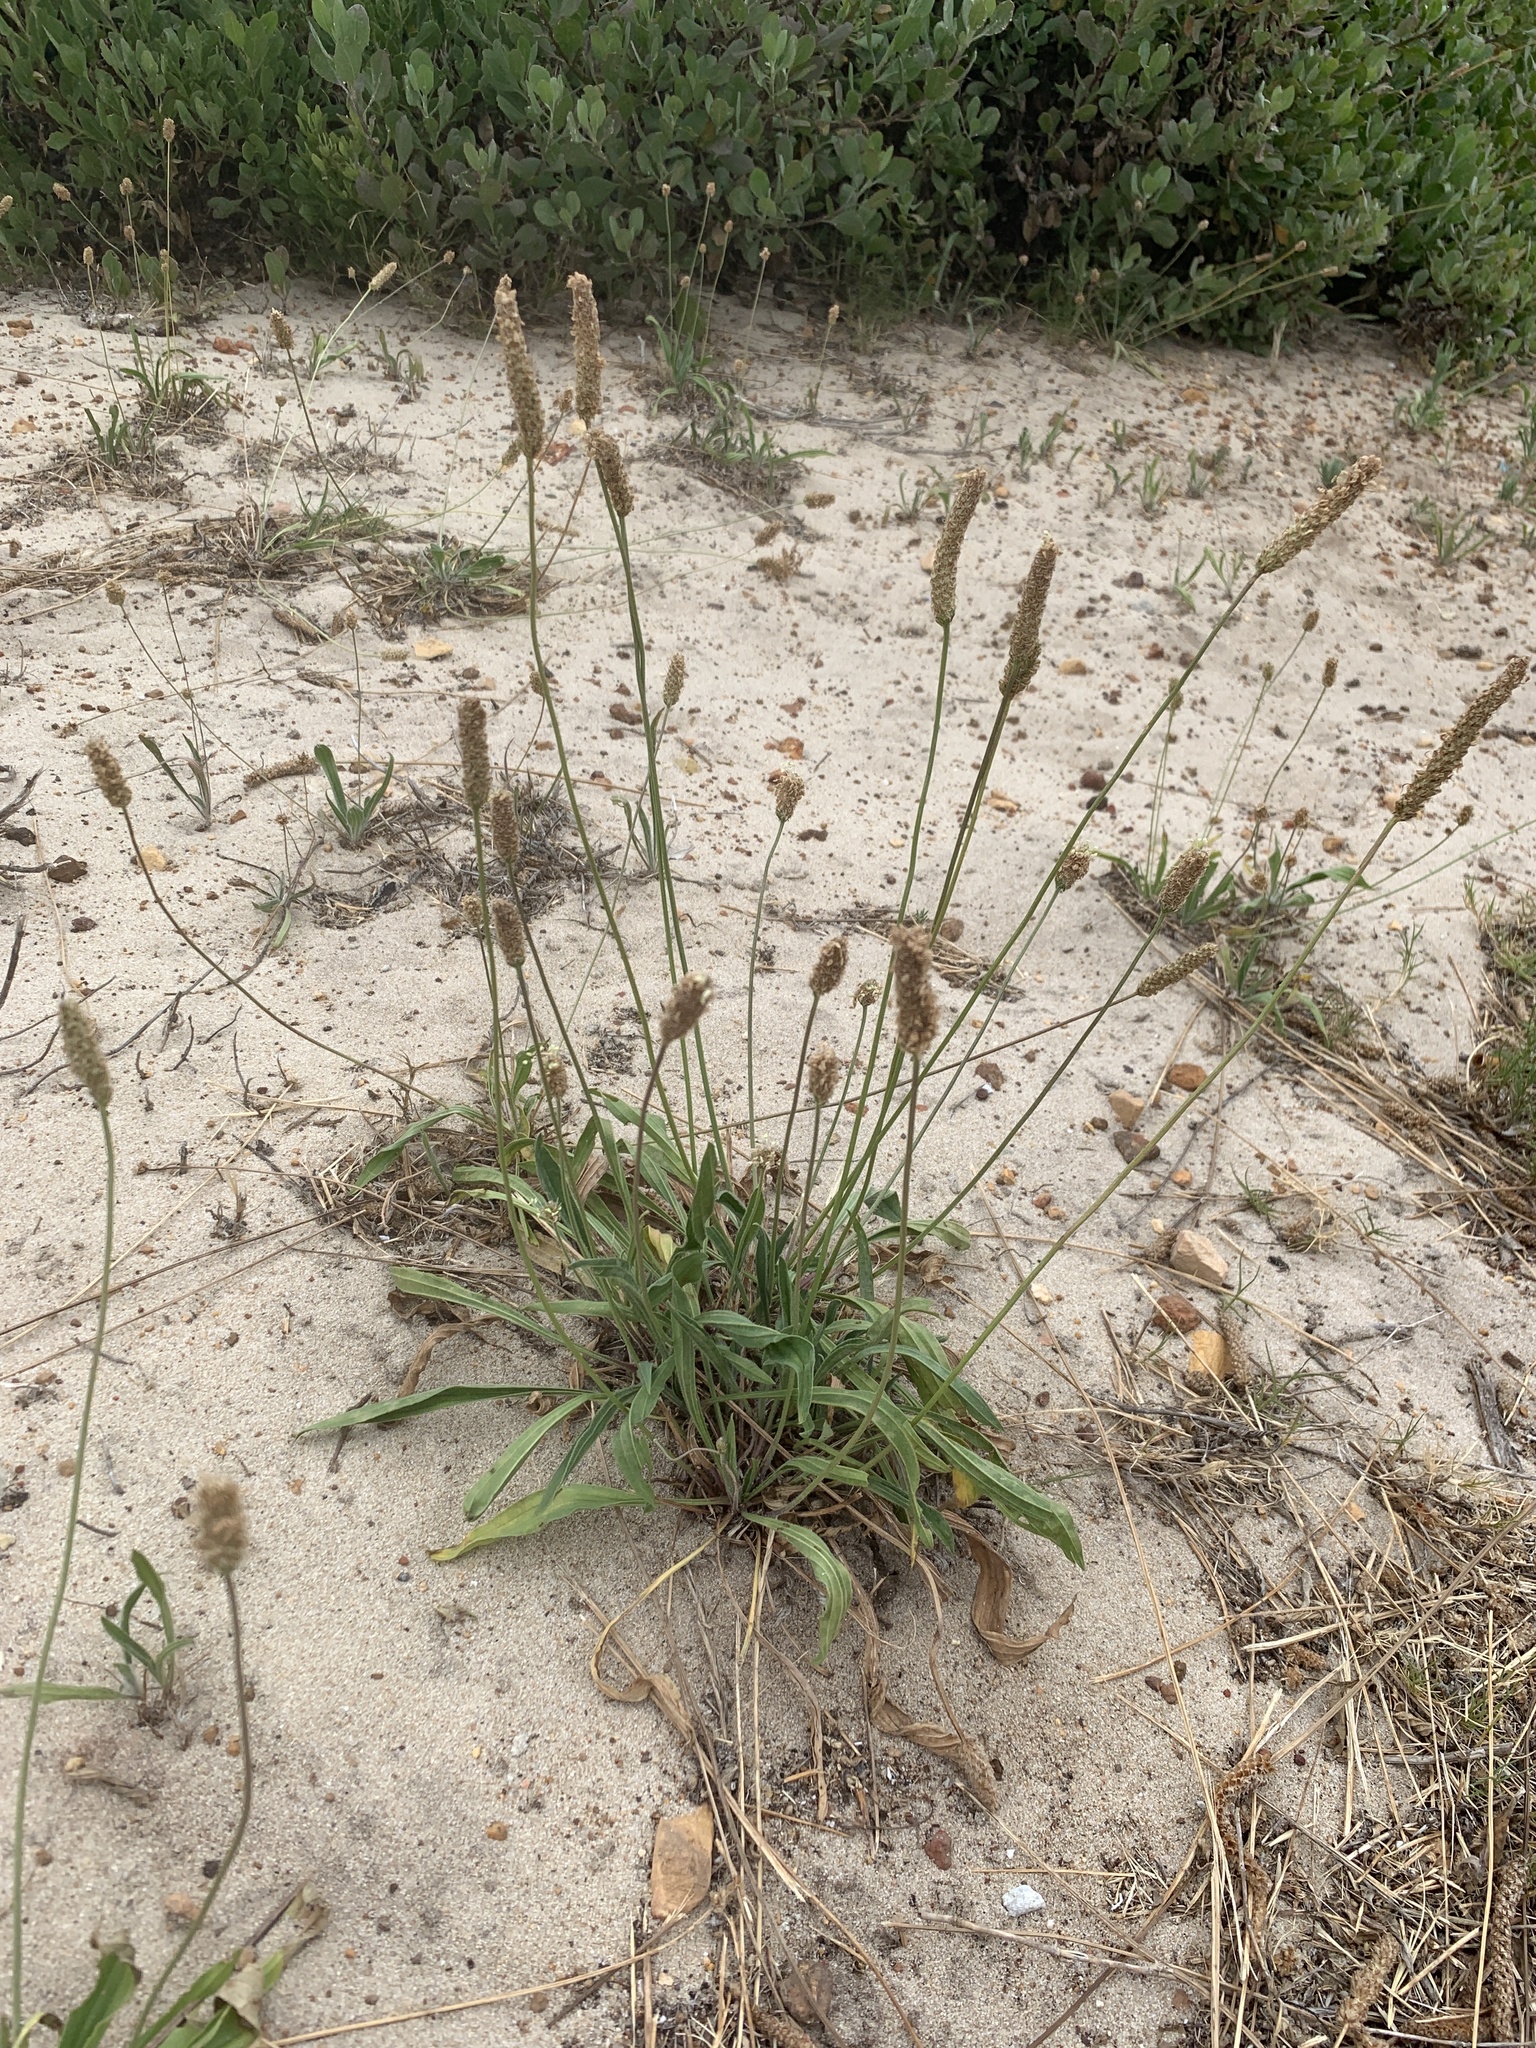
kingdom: Plantae
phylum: Tracheophyta
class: Magnoliopsida
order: Lamiales
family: Plantaginaceae
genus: Plantago
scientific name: Plantago lanceolata
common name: Ribwort plantain
